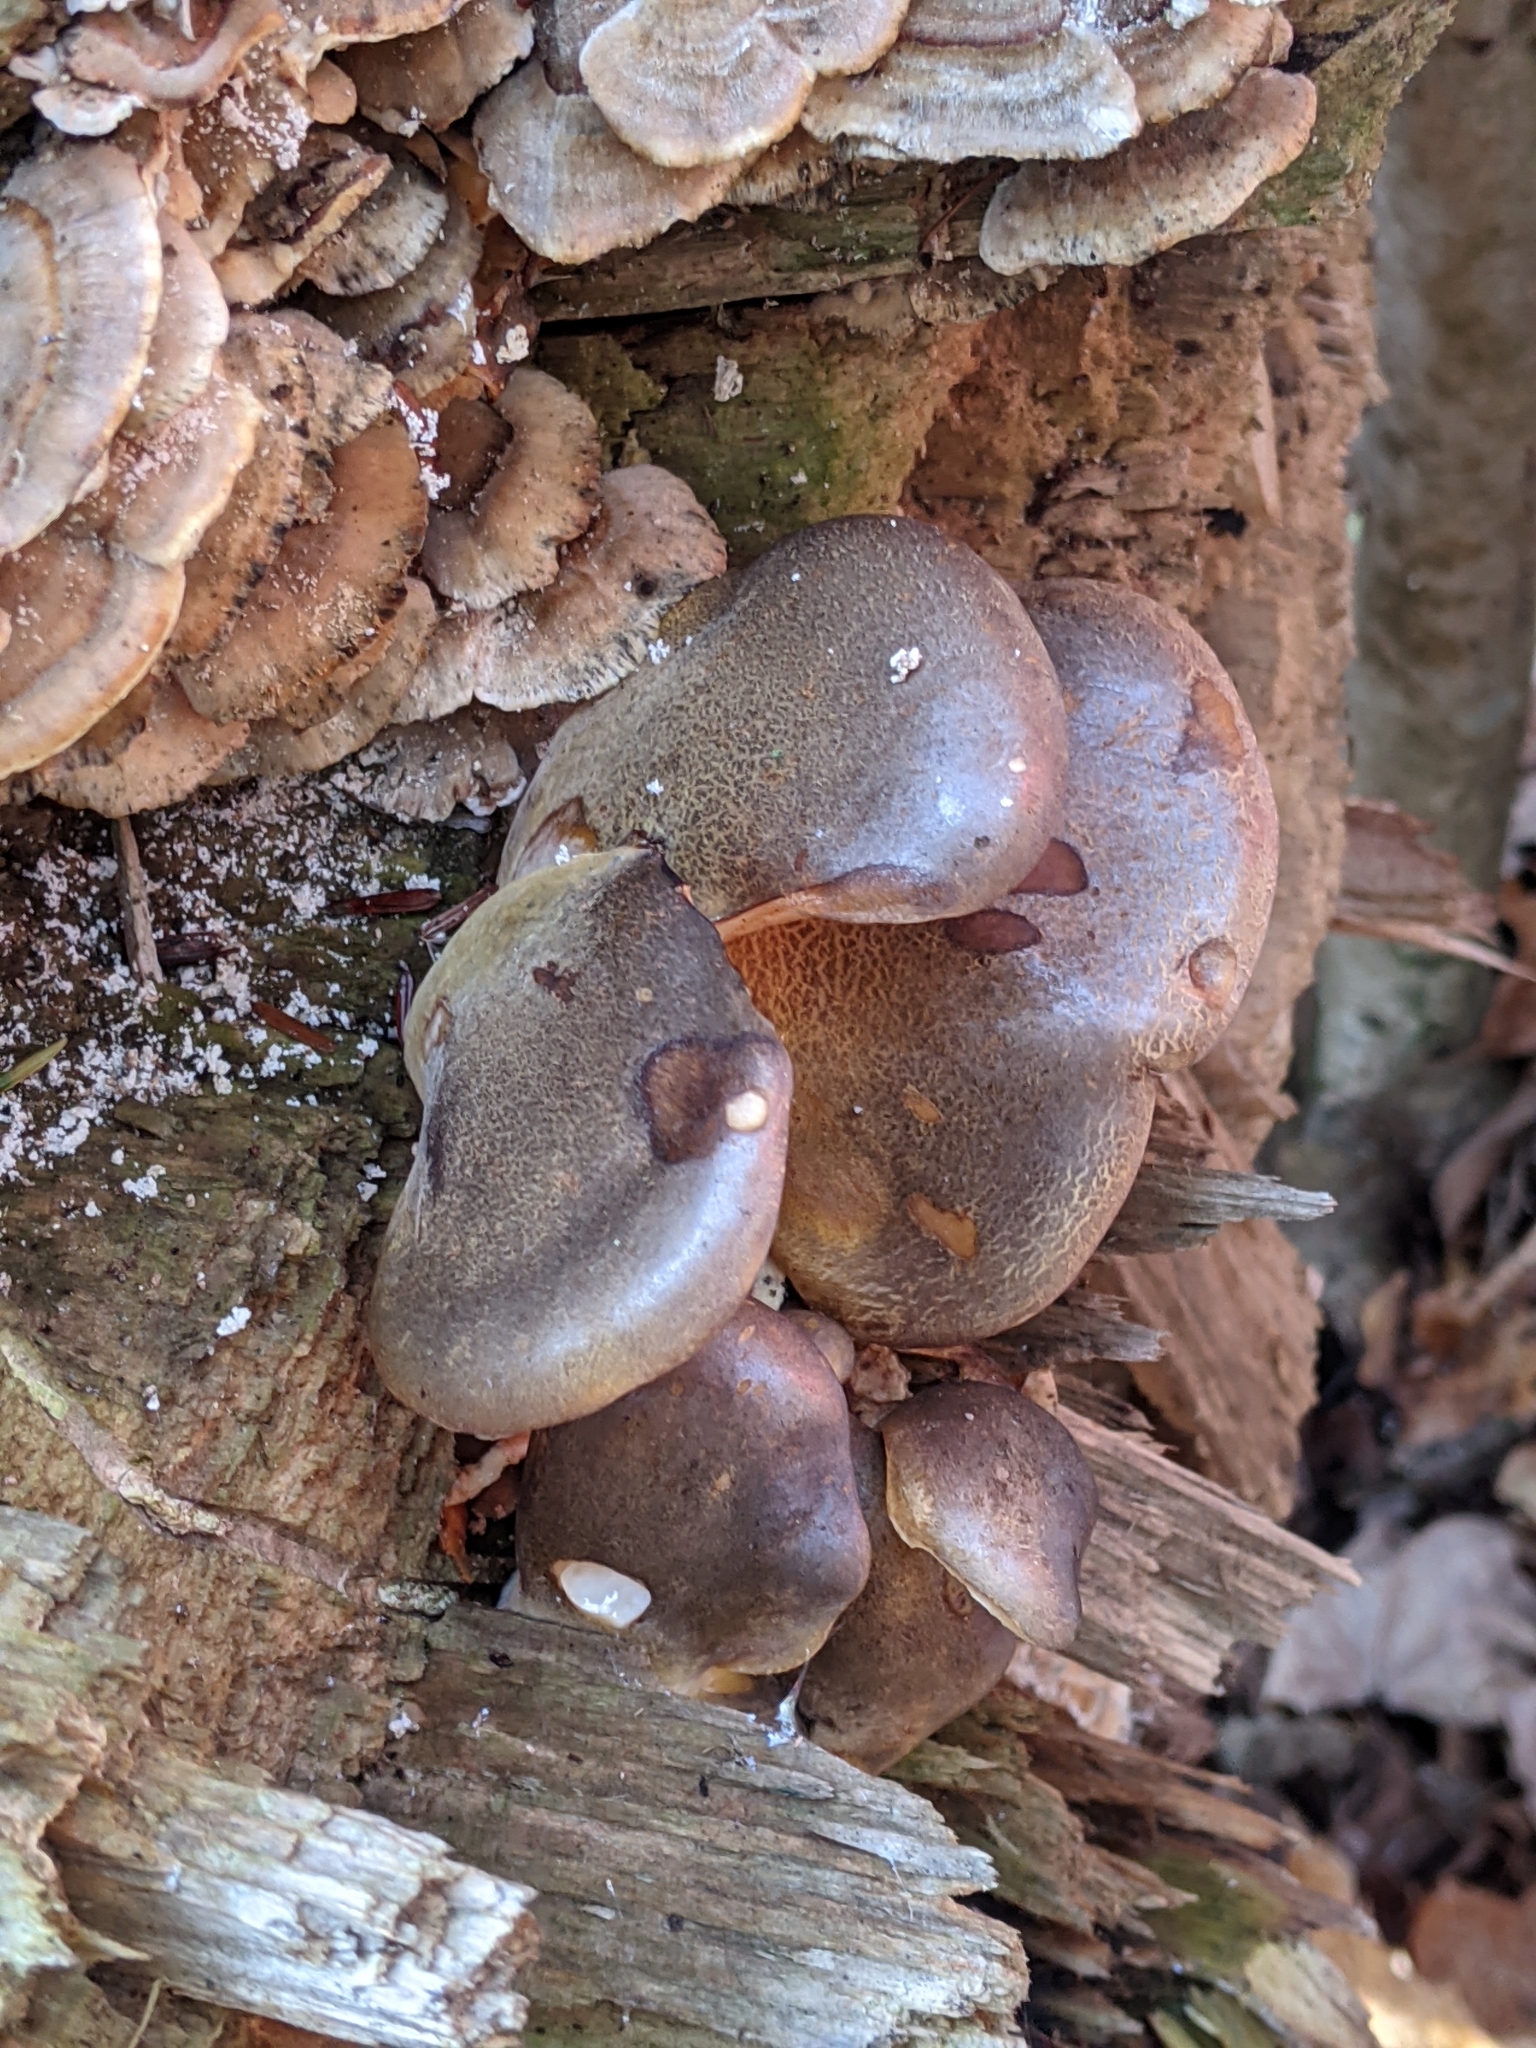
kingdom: Fungi
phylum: Basidiomycota
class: Agaricomycetes
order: Agaricales
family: Sarcomyxaceae
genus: Sarcomyxa
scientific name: Sarcomyxa serotina
